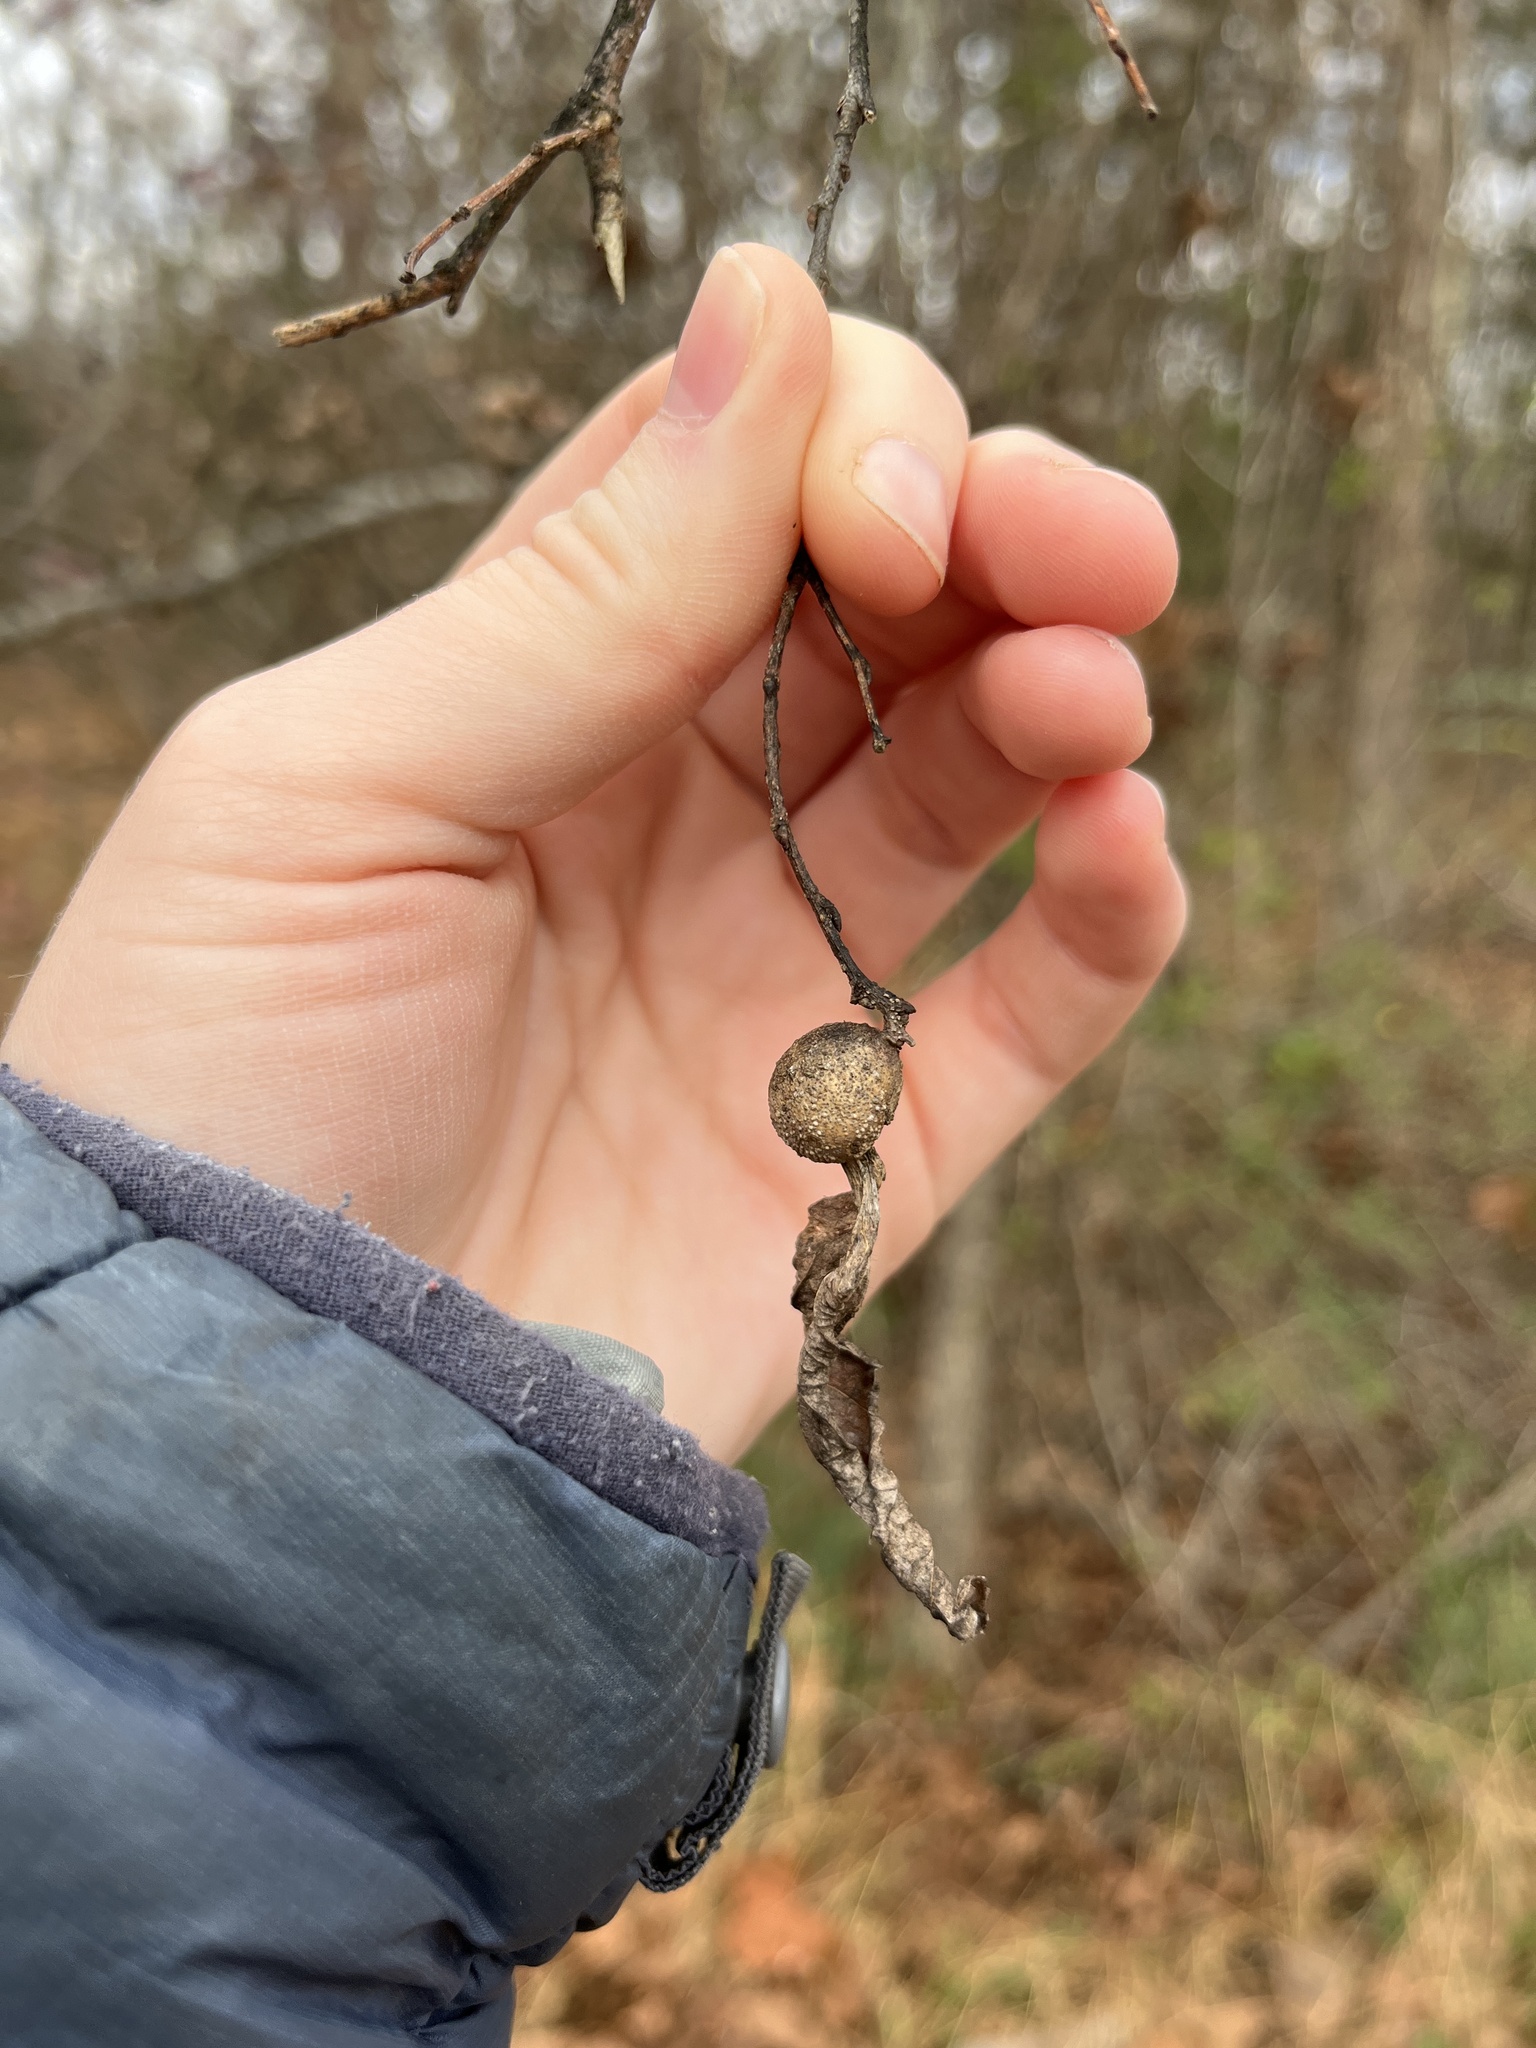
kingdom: Animalia
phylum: Arthropoda
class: Insecta
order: Hemiptera
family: Aphalaridae
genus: Pachypsylla
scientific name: Pachypsylla venusta
